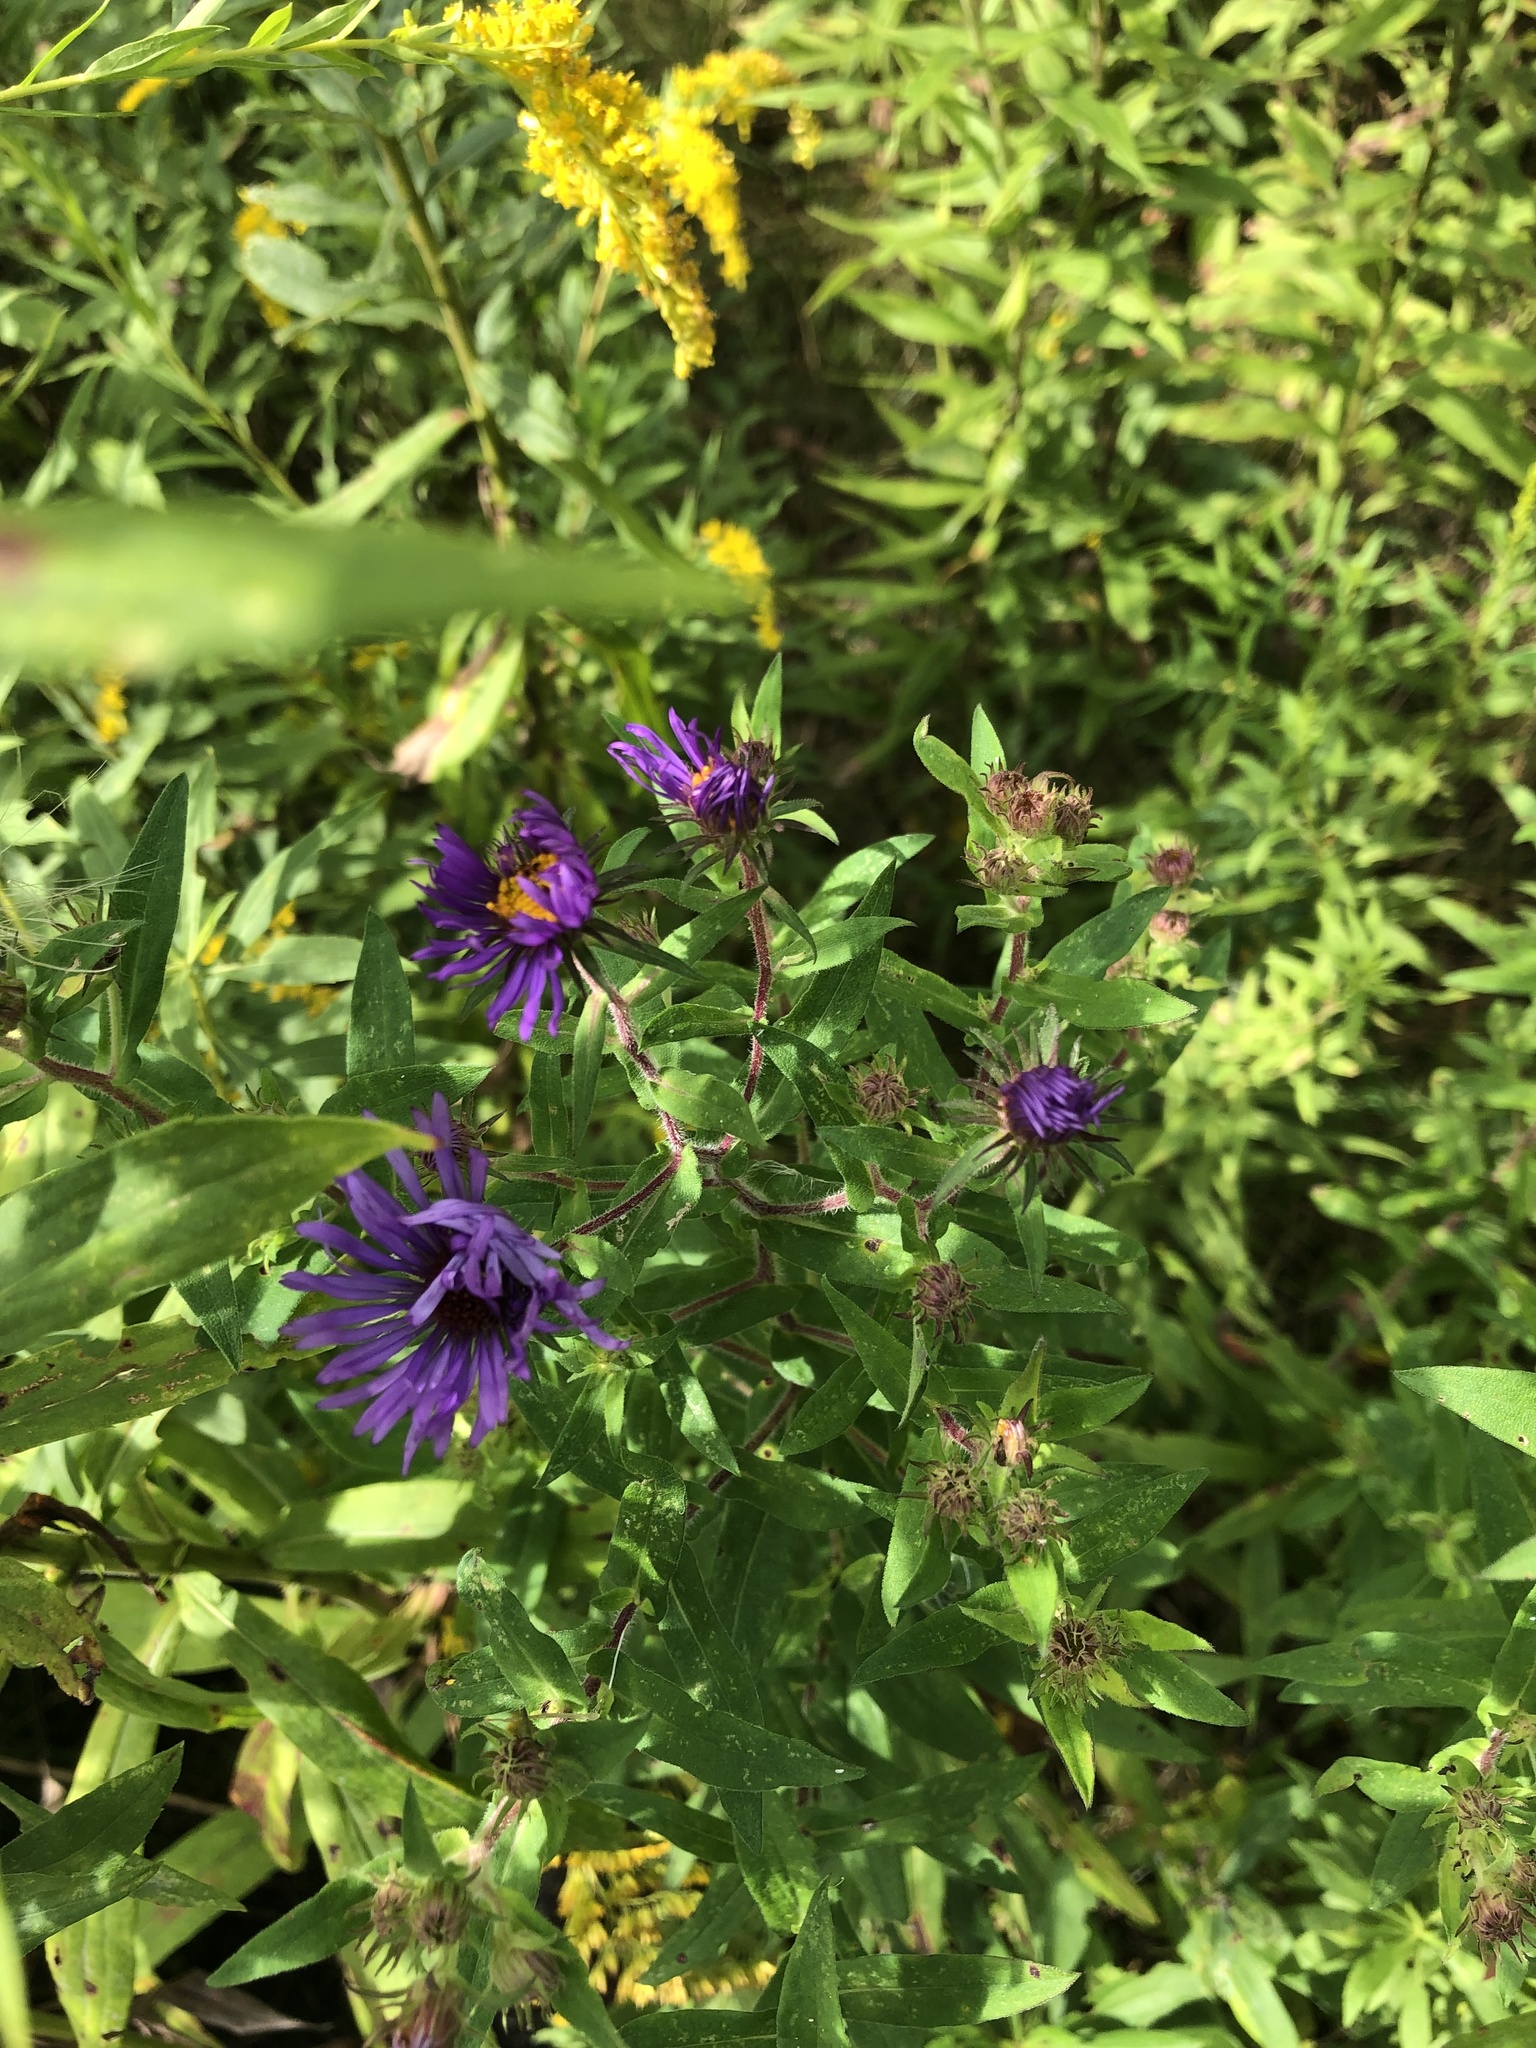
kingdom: Plantae
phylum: Tracheophyta
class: Magnoliopsida
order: Asterales
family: Asteraceae
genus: Symphyotrichum
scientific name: Symphyotrichum novae-angliae
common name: Michaelmas daisy
